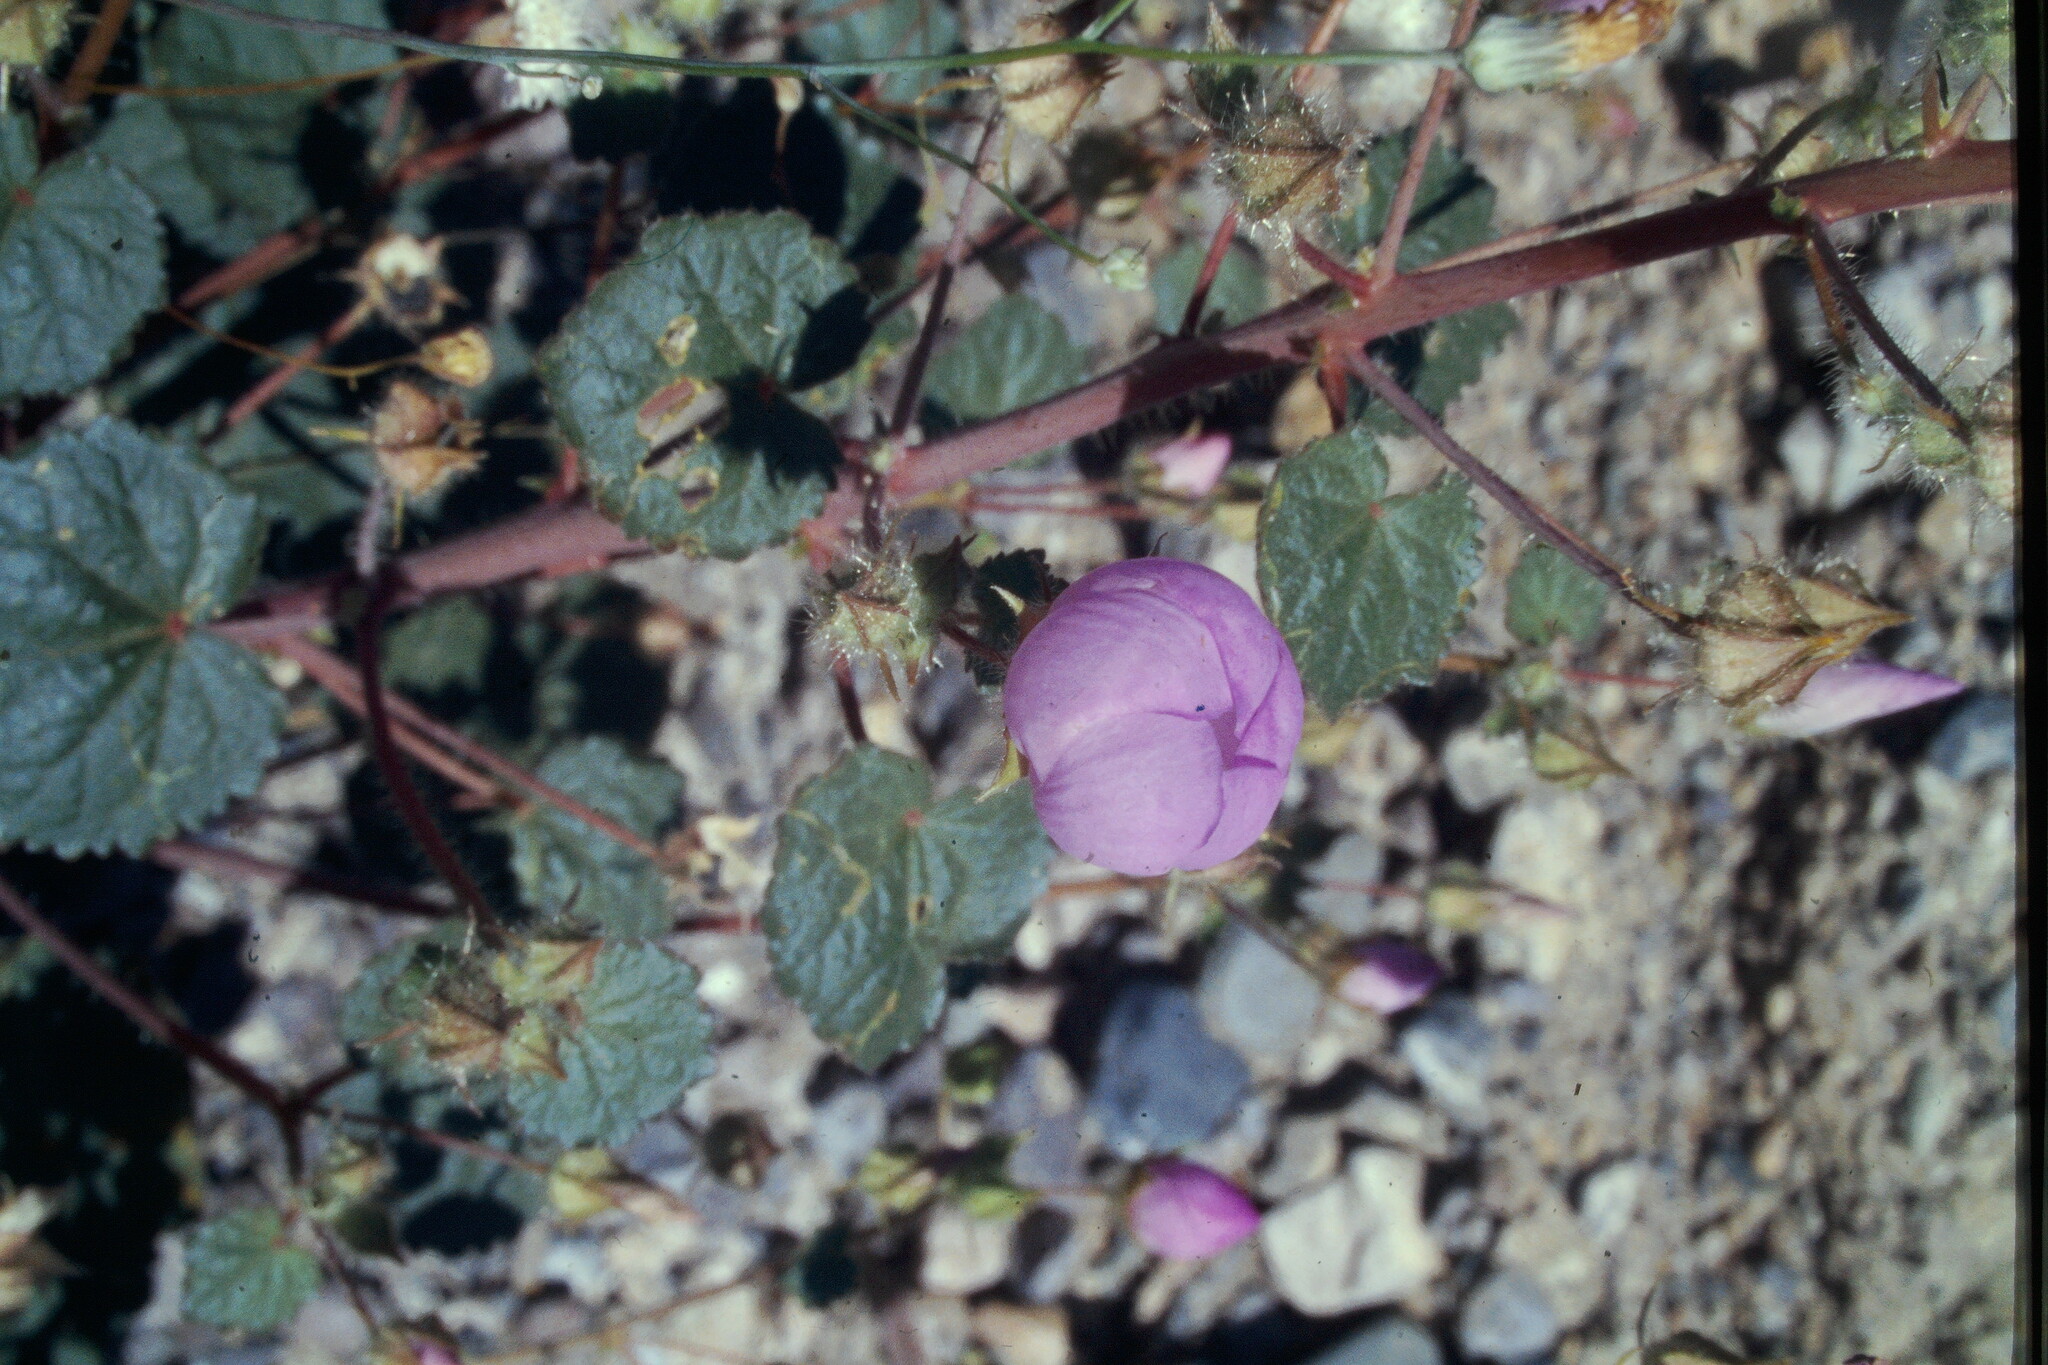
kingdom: Plantae
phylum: Tracheophyta
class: Magnoliopsida
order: Malvales
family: Malvaceae
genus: Eremalche
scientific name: Eremalche rotundifolia
